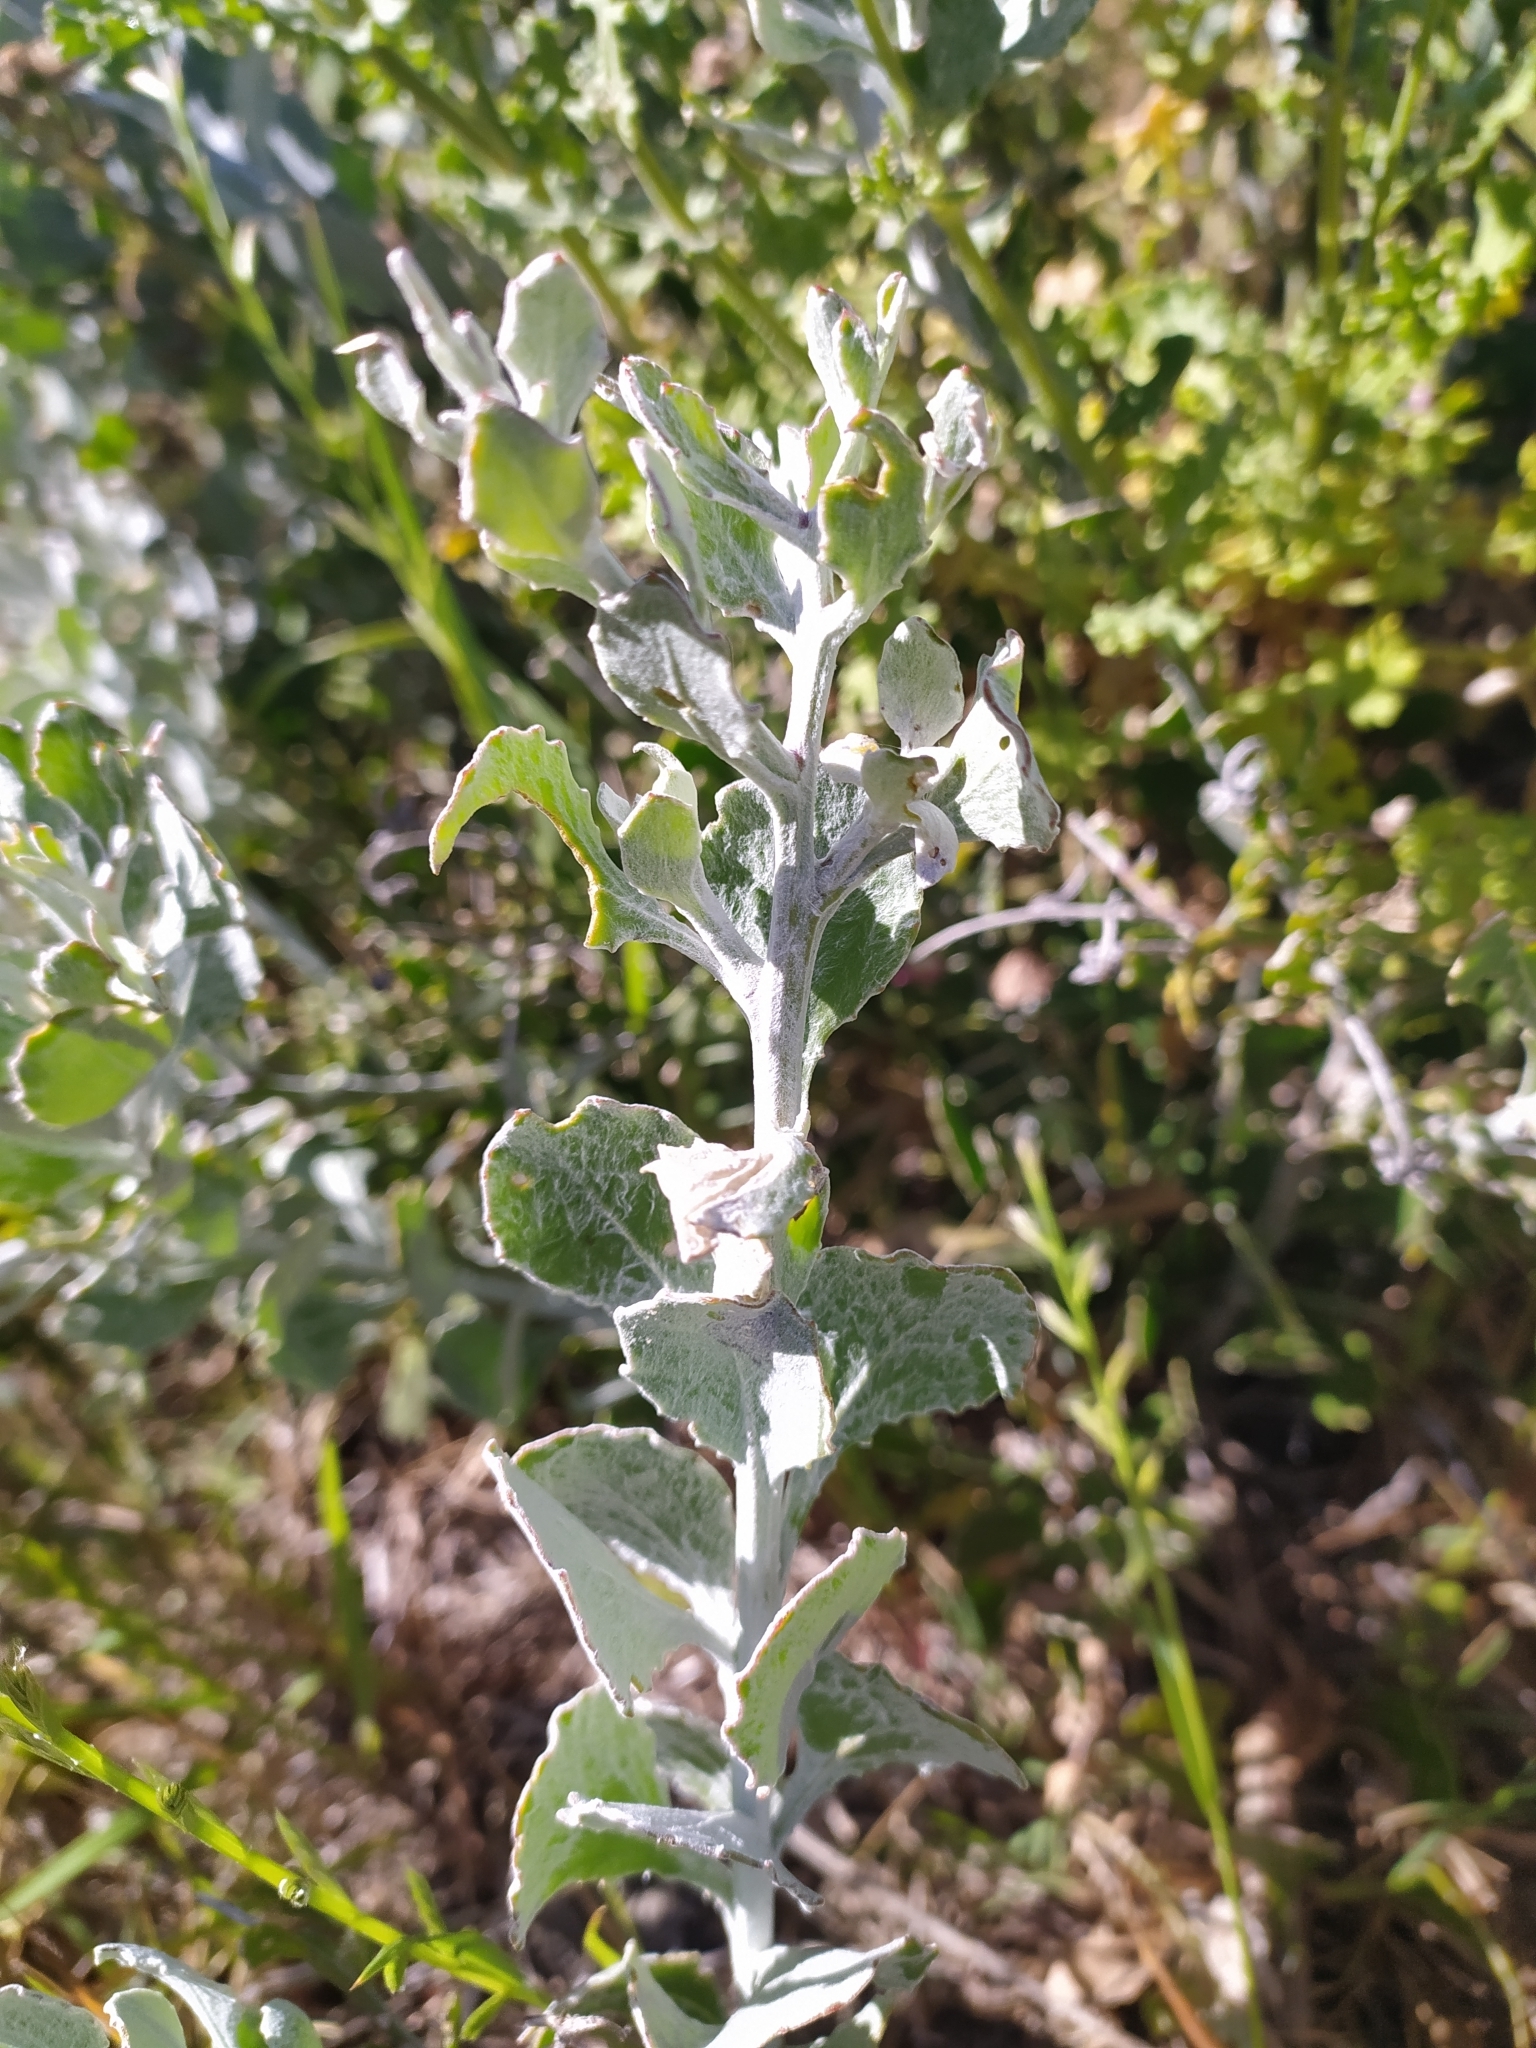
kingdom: Plantae
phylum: Tracheophyta
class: Magnoliopsida
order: Asterales
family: Asteraceae
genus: Osteospermum
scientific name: Osteospermum incanum
